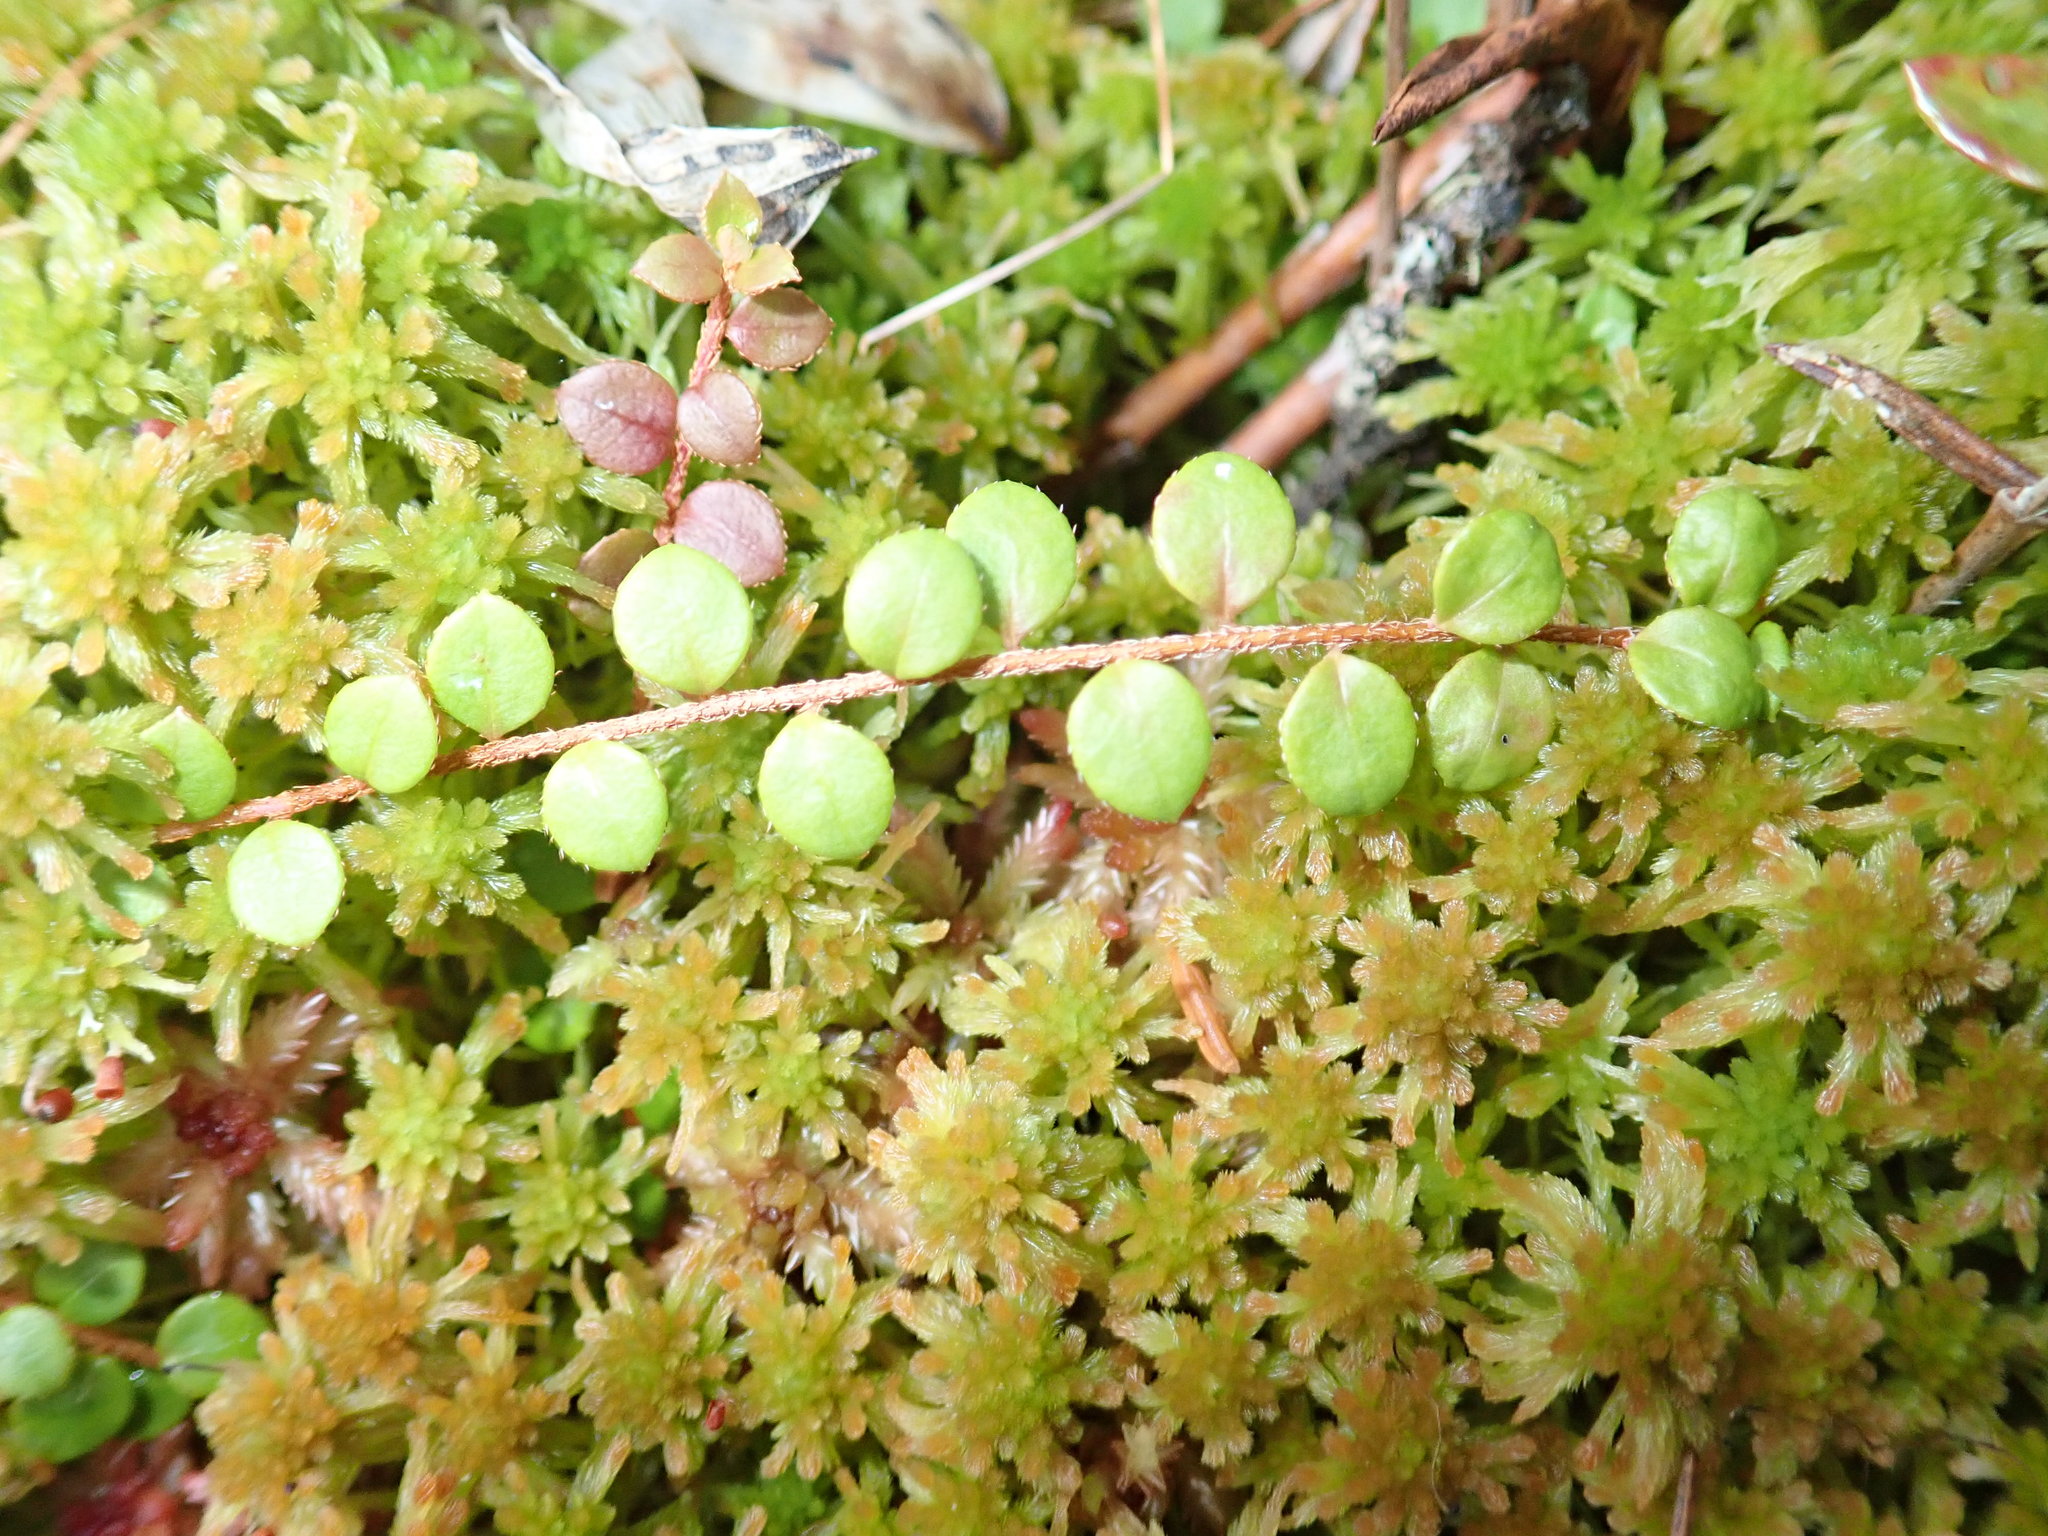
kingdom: Plantae
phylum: Tracheophyta
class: Magnoliopsida
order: Ericales
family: Ericaceae
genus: Gaultheria
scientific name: Gaultheria hispidula
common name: Cancer wintergreen
